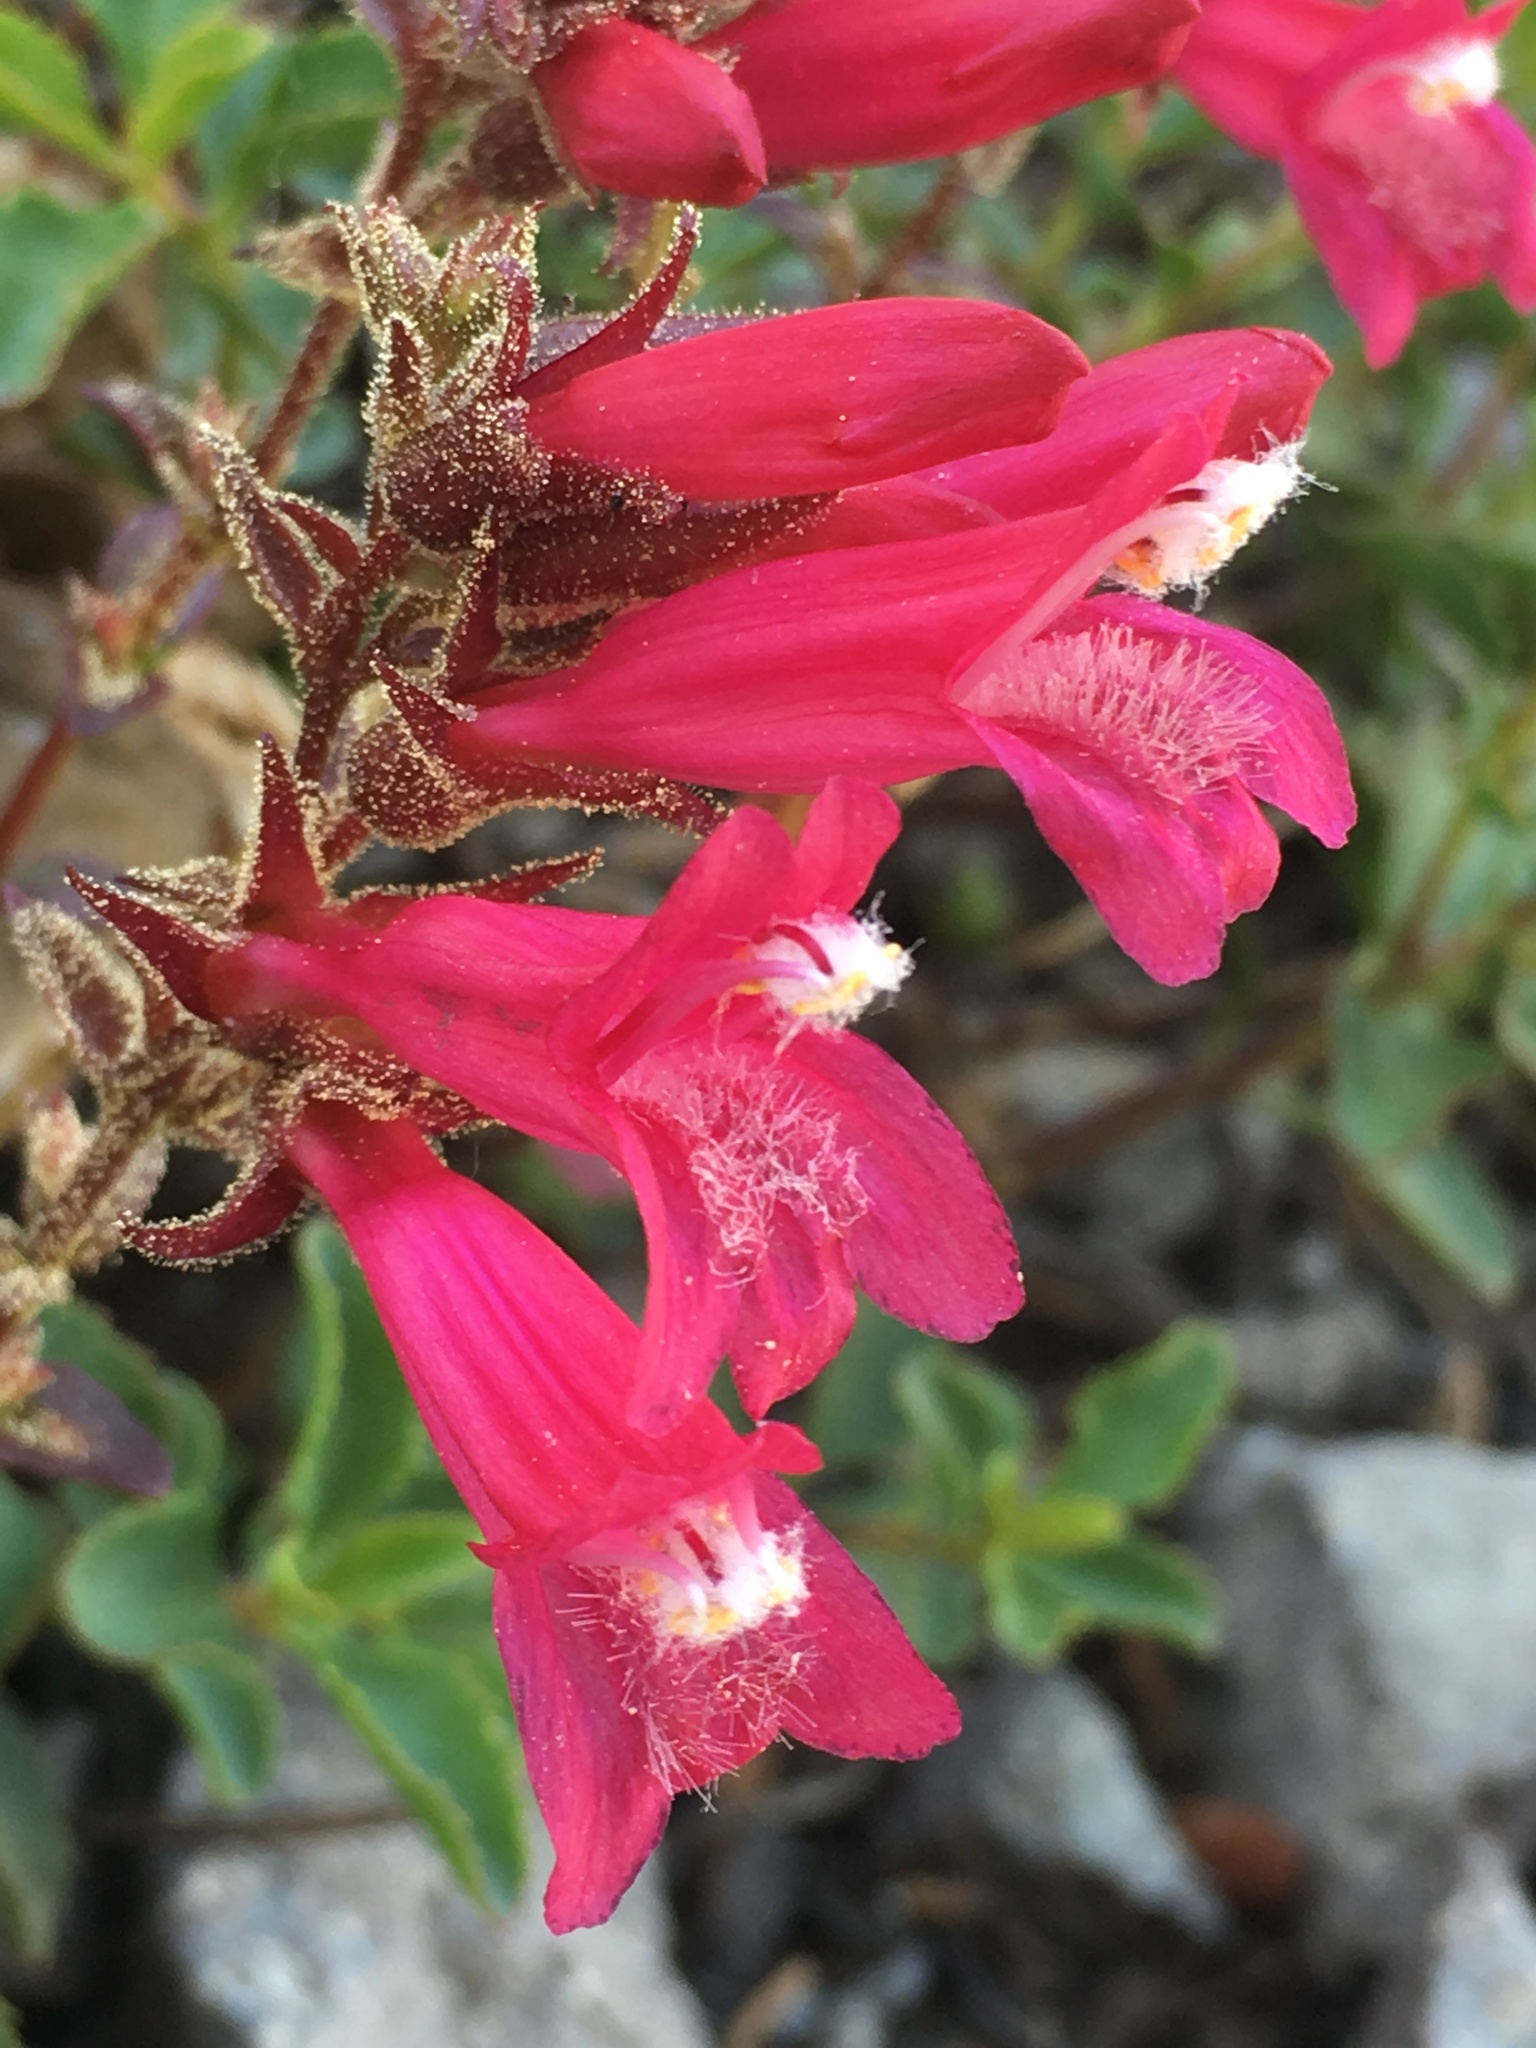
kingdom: Plantae
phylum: Tracheophyta
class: Magnoliopsida
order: Lamiales
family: Plantaginaceae
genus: Penstemon
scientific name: Penstemon newberryi
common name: Mountain-pride
